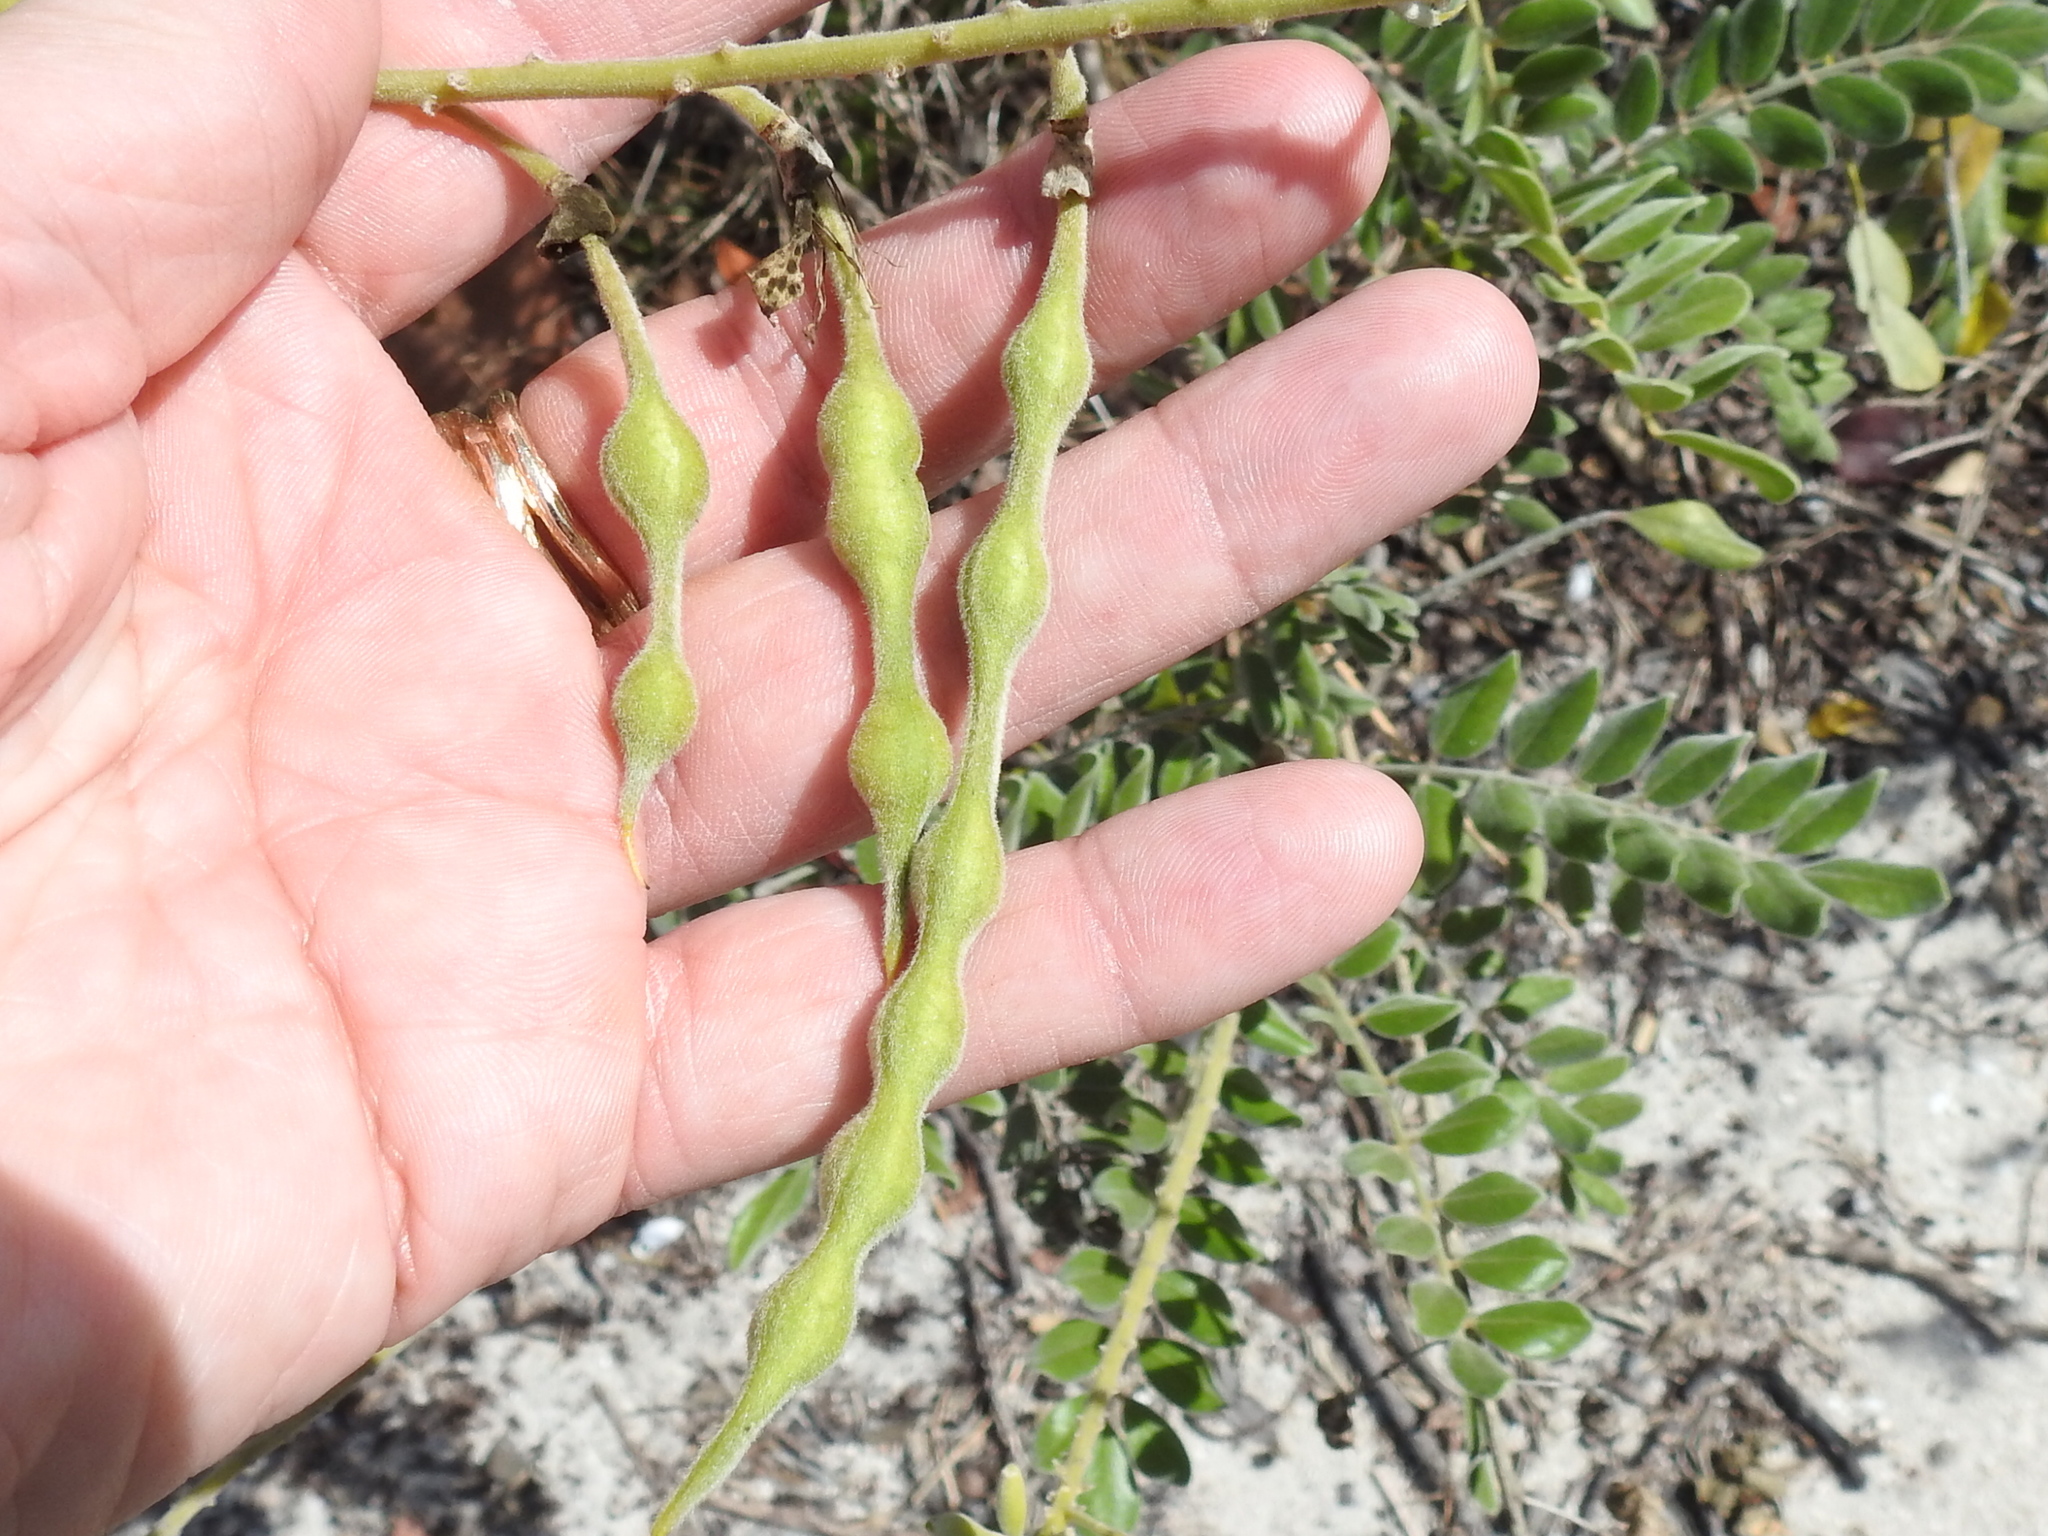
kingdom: Plantae
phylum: Tracheophyta
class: Magnoliopsida
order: Fabales
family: Fabaceae
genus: Sophora
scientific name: Sophora tomentosa
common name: Yellow necklacepod
